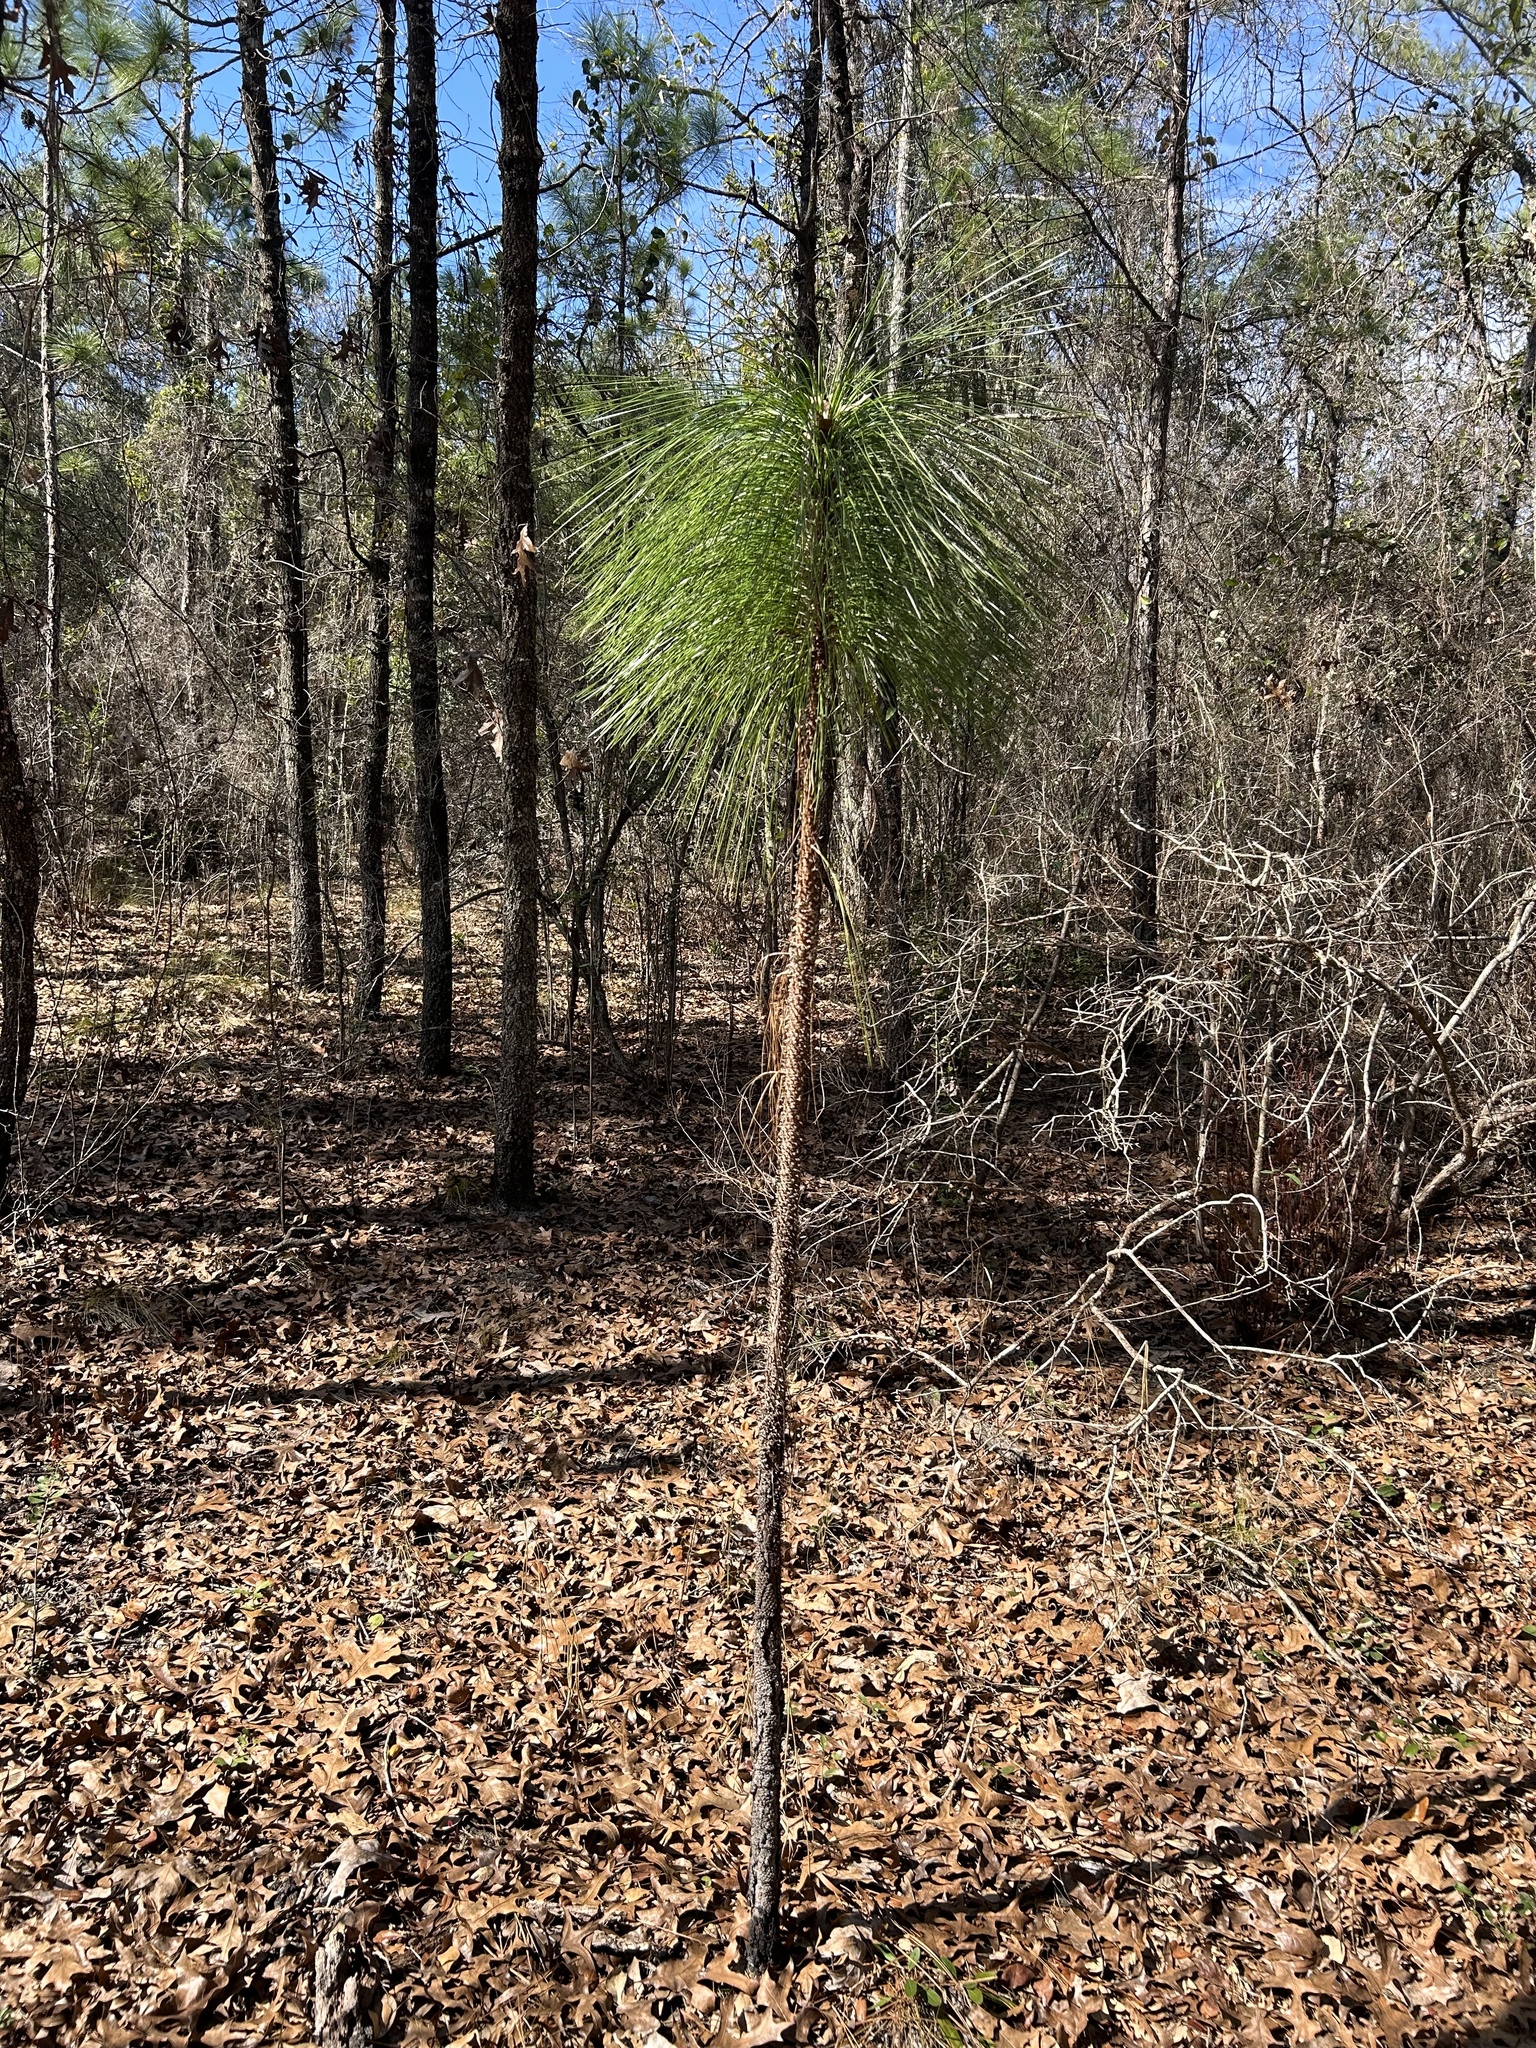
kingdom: Plantae
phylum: Tracheophyta
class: Pinopsida
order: Pinales
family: Pinaceae
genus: Pinus
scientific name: Pinus palustris
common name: Longleaf pine
